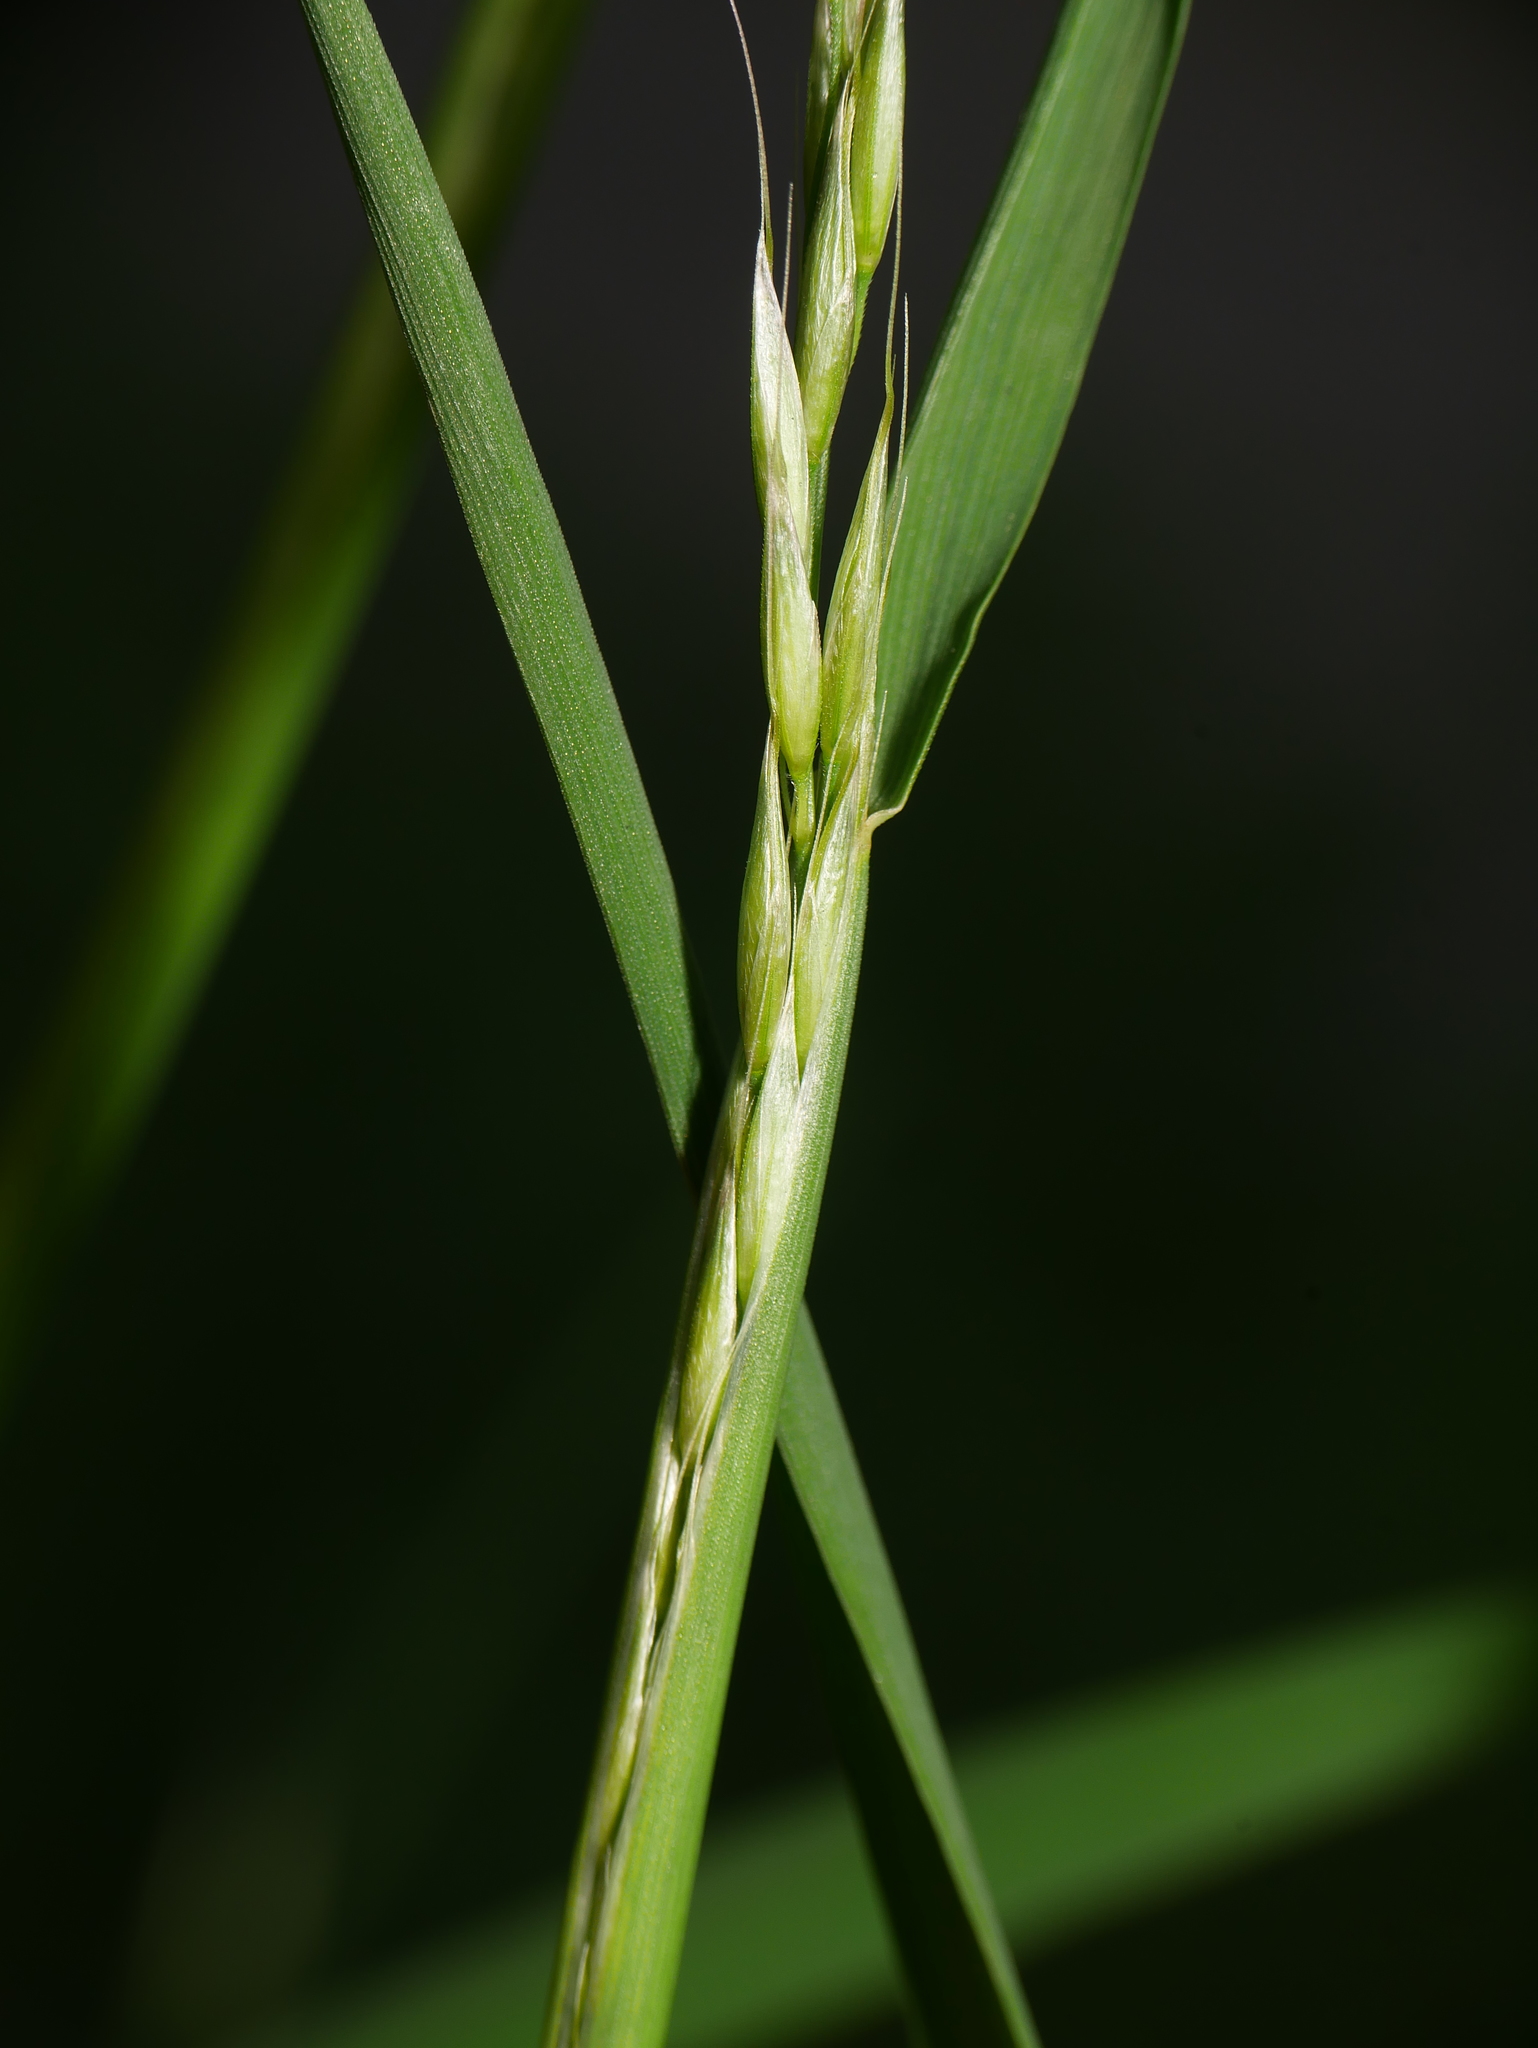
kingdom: Plantae
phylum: Tracheophyta
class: Liliopsida
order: Poales
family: Poaceae
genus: Arrhenatherum
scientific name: Arrhenatherum elatius
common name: Tall oatgrass
